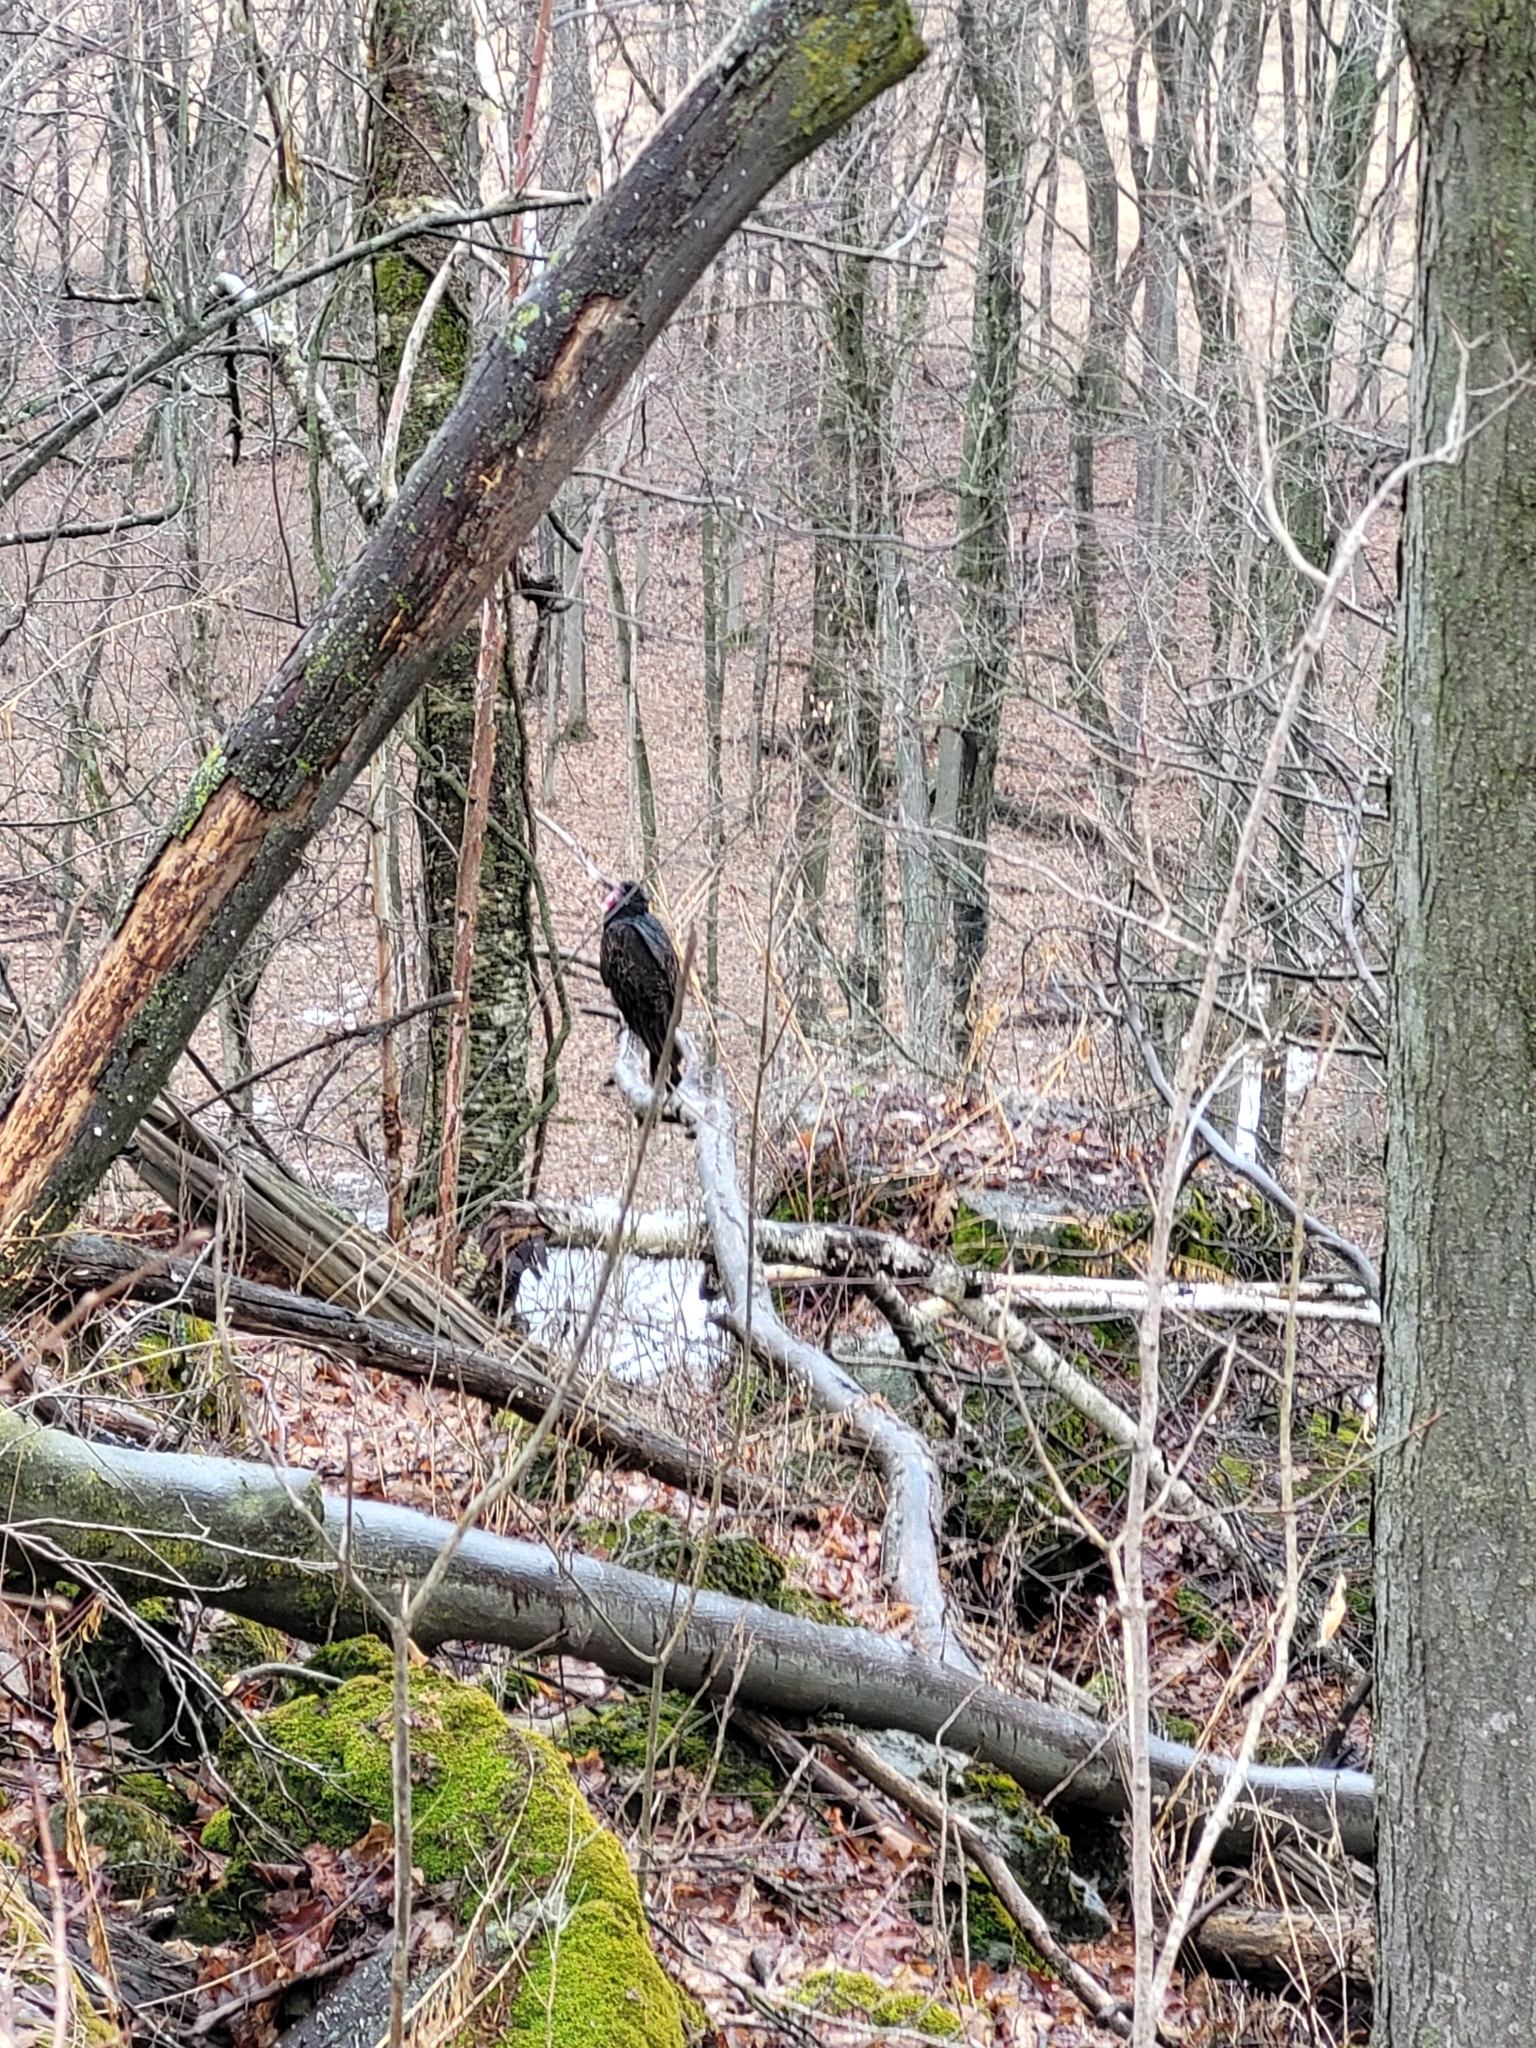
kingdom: Animalia
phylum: Chordata
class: Aves
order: Accipitriformes
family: Cathartidae
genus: Cathartes
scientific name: Cathartes aura
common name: Turkey vulture
